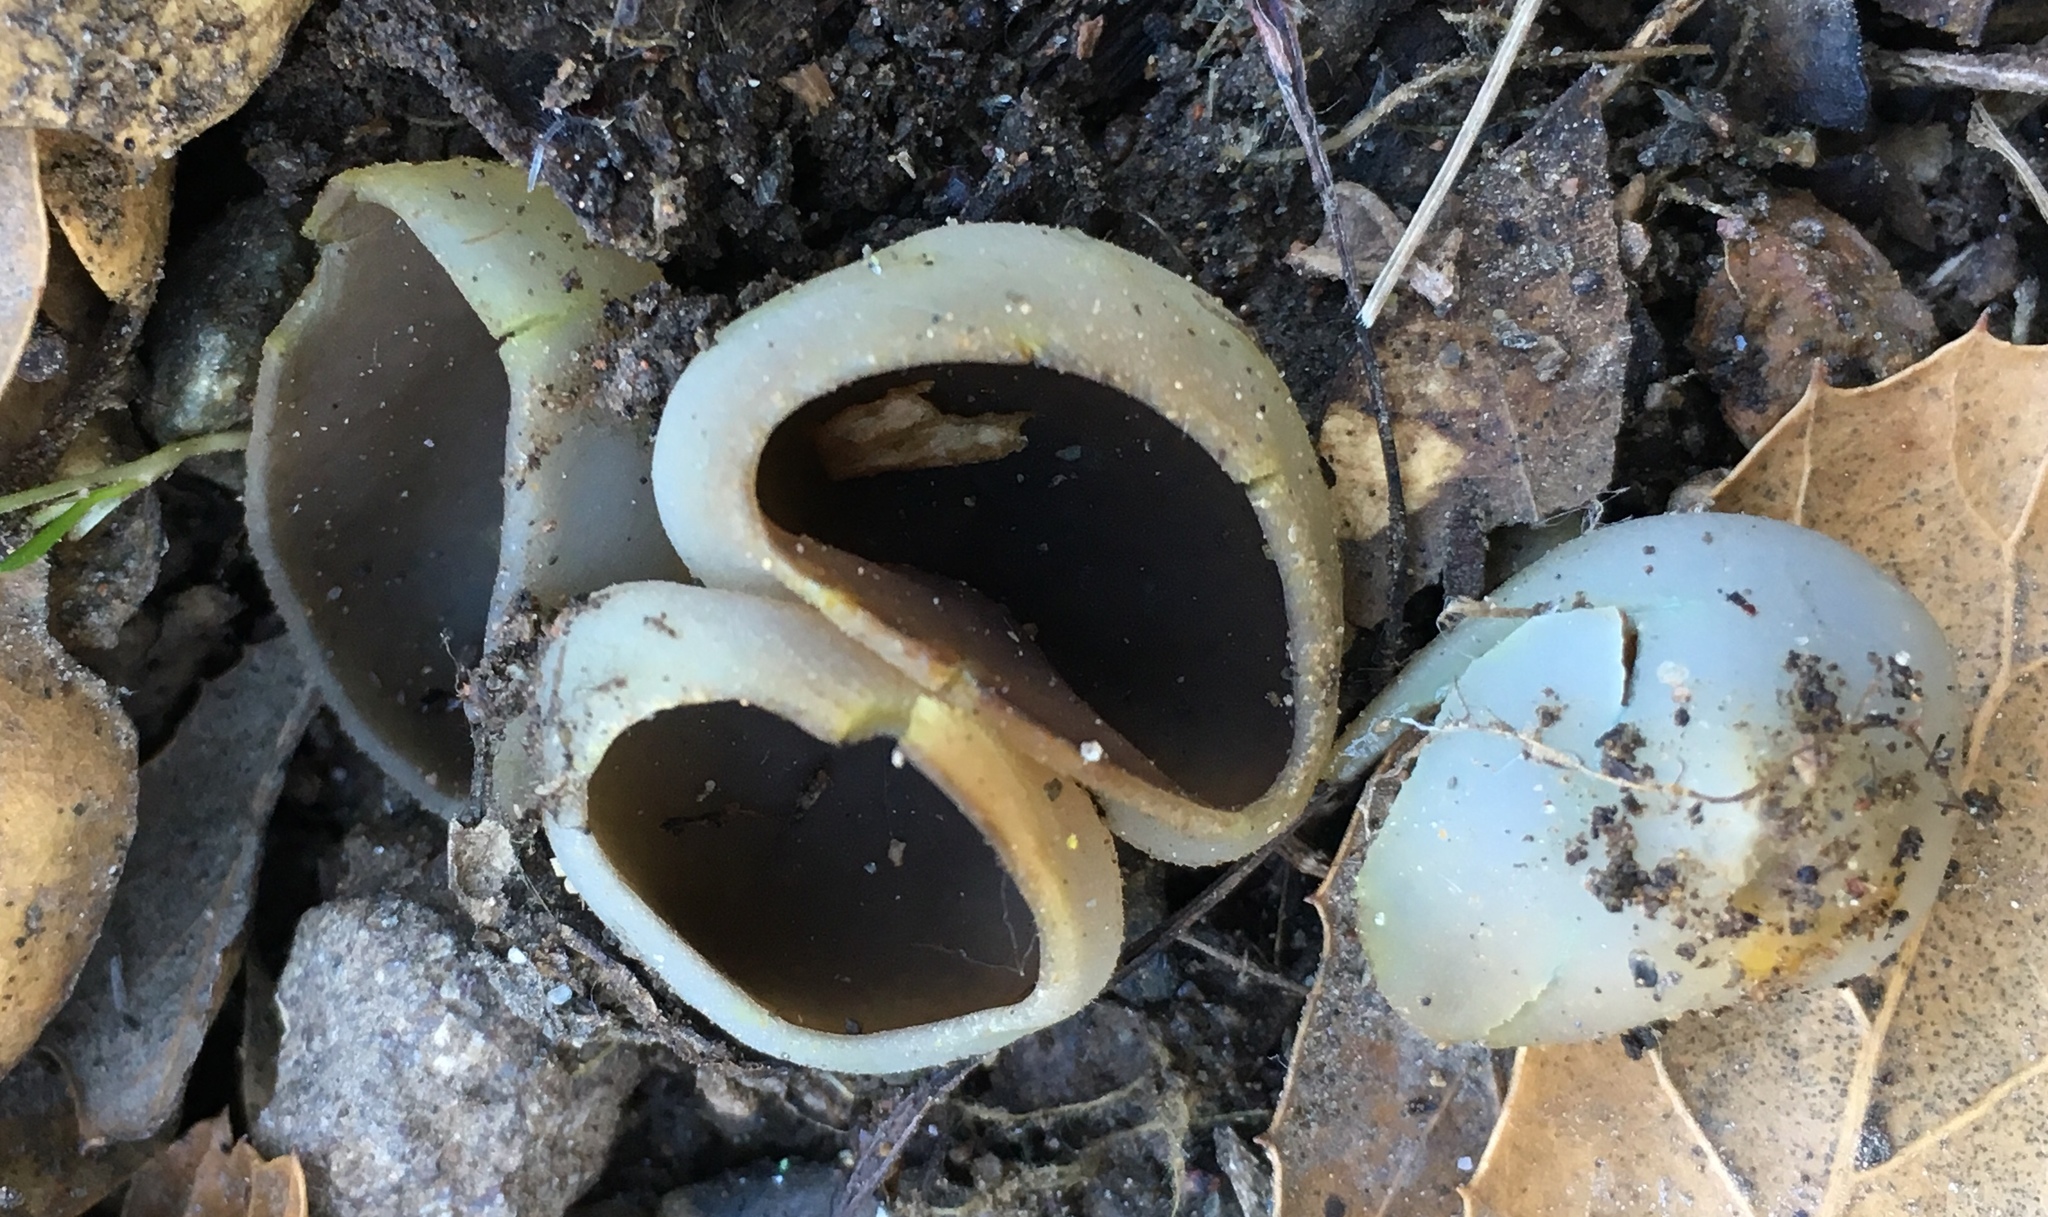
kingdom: Fungi
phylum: Ascomycota
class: Pezizomycetes
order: Pezizales
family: Pezizaceae
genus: Paragalactinia
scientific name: Paragalactinia succosa
